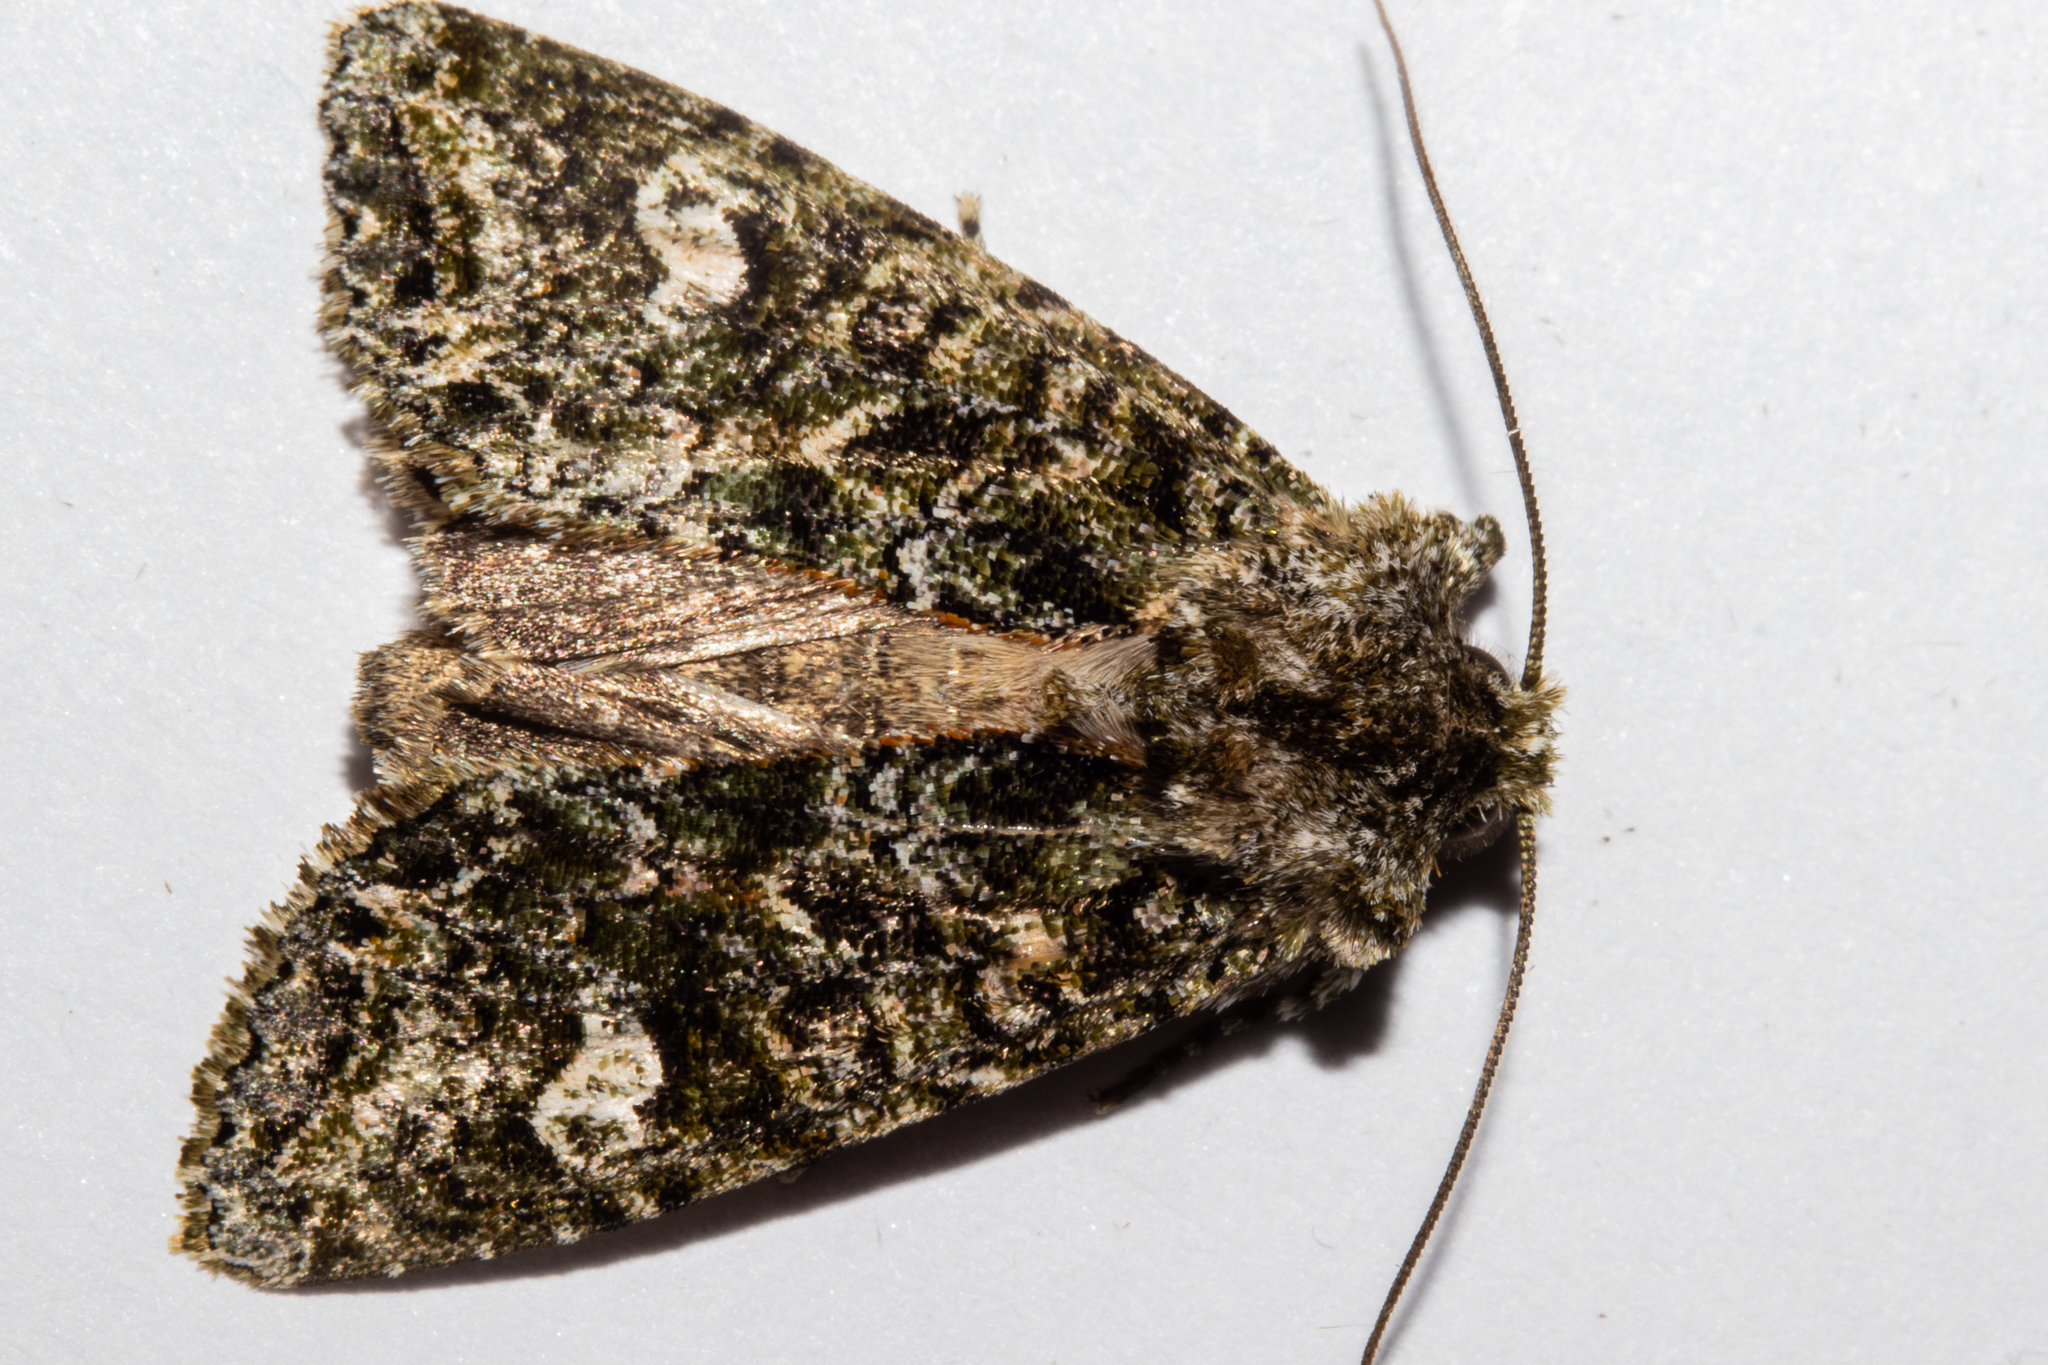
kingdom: Animalia
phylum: Arthropoda
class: Insecta
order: Lepidoptera
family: Noctuidae
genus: Ichneutica
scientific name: Ichneutica
